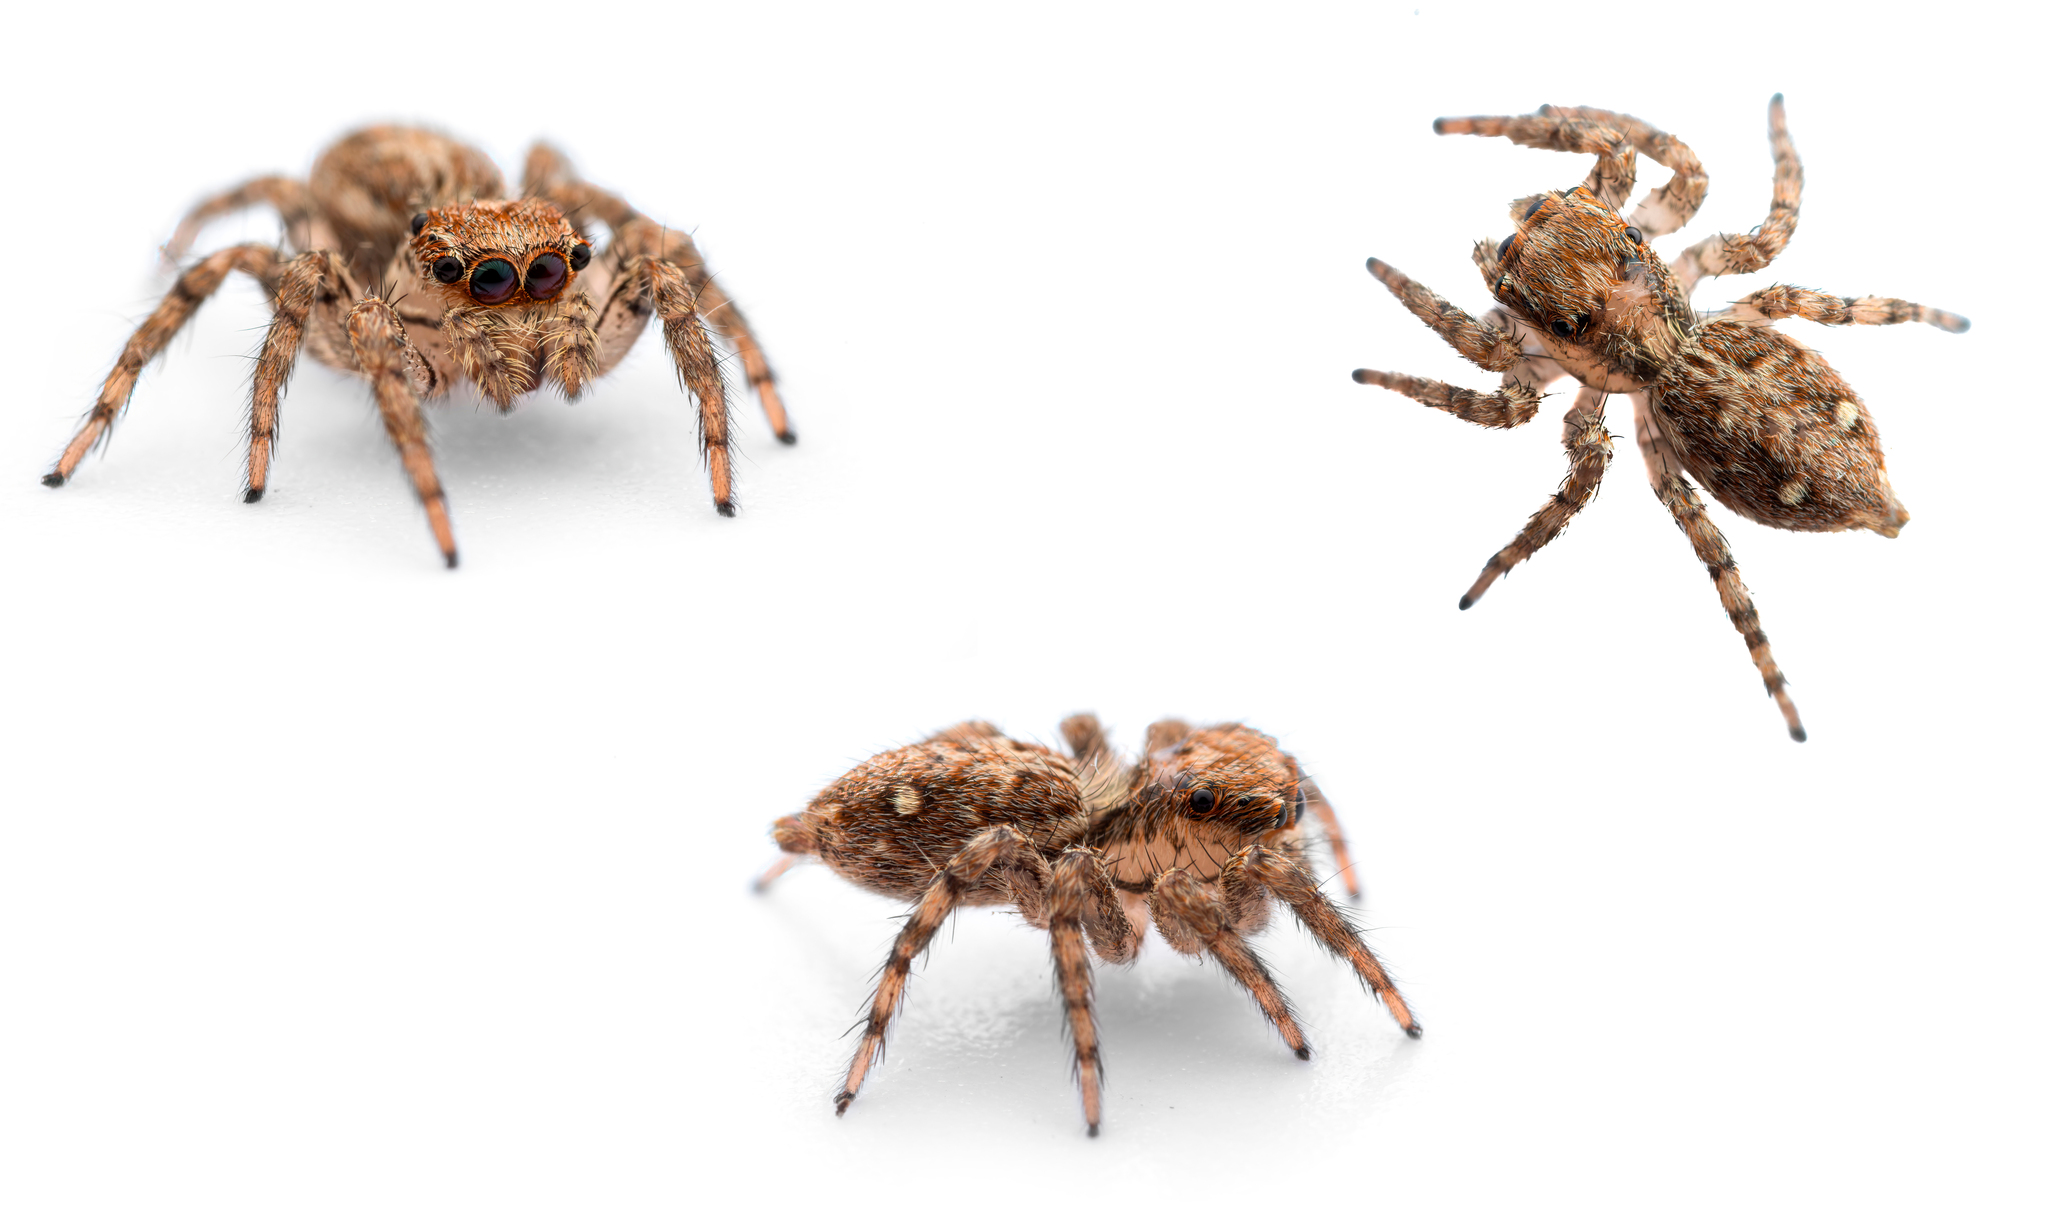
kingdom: Animalia
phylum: Arthropoda
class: Arachnida
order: Araneae
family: Salticidae
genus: Plexippus
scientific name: Plexippus paykulli
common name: Pantropical jumper
